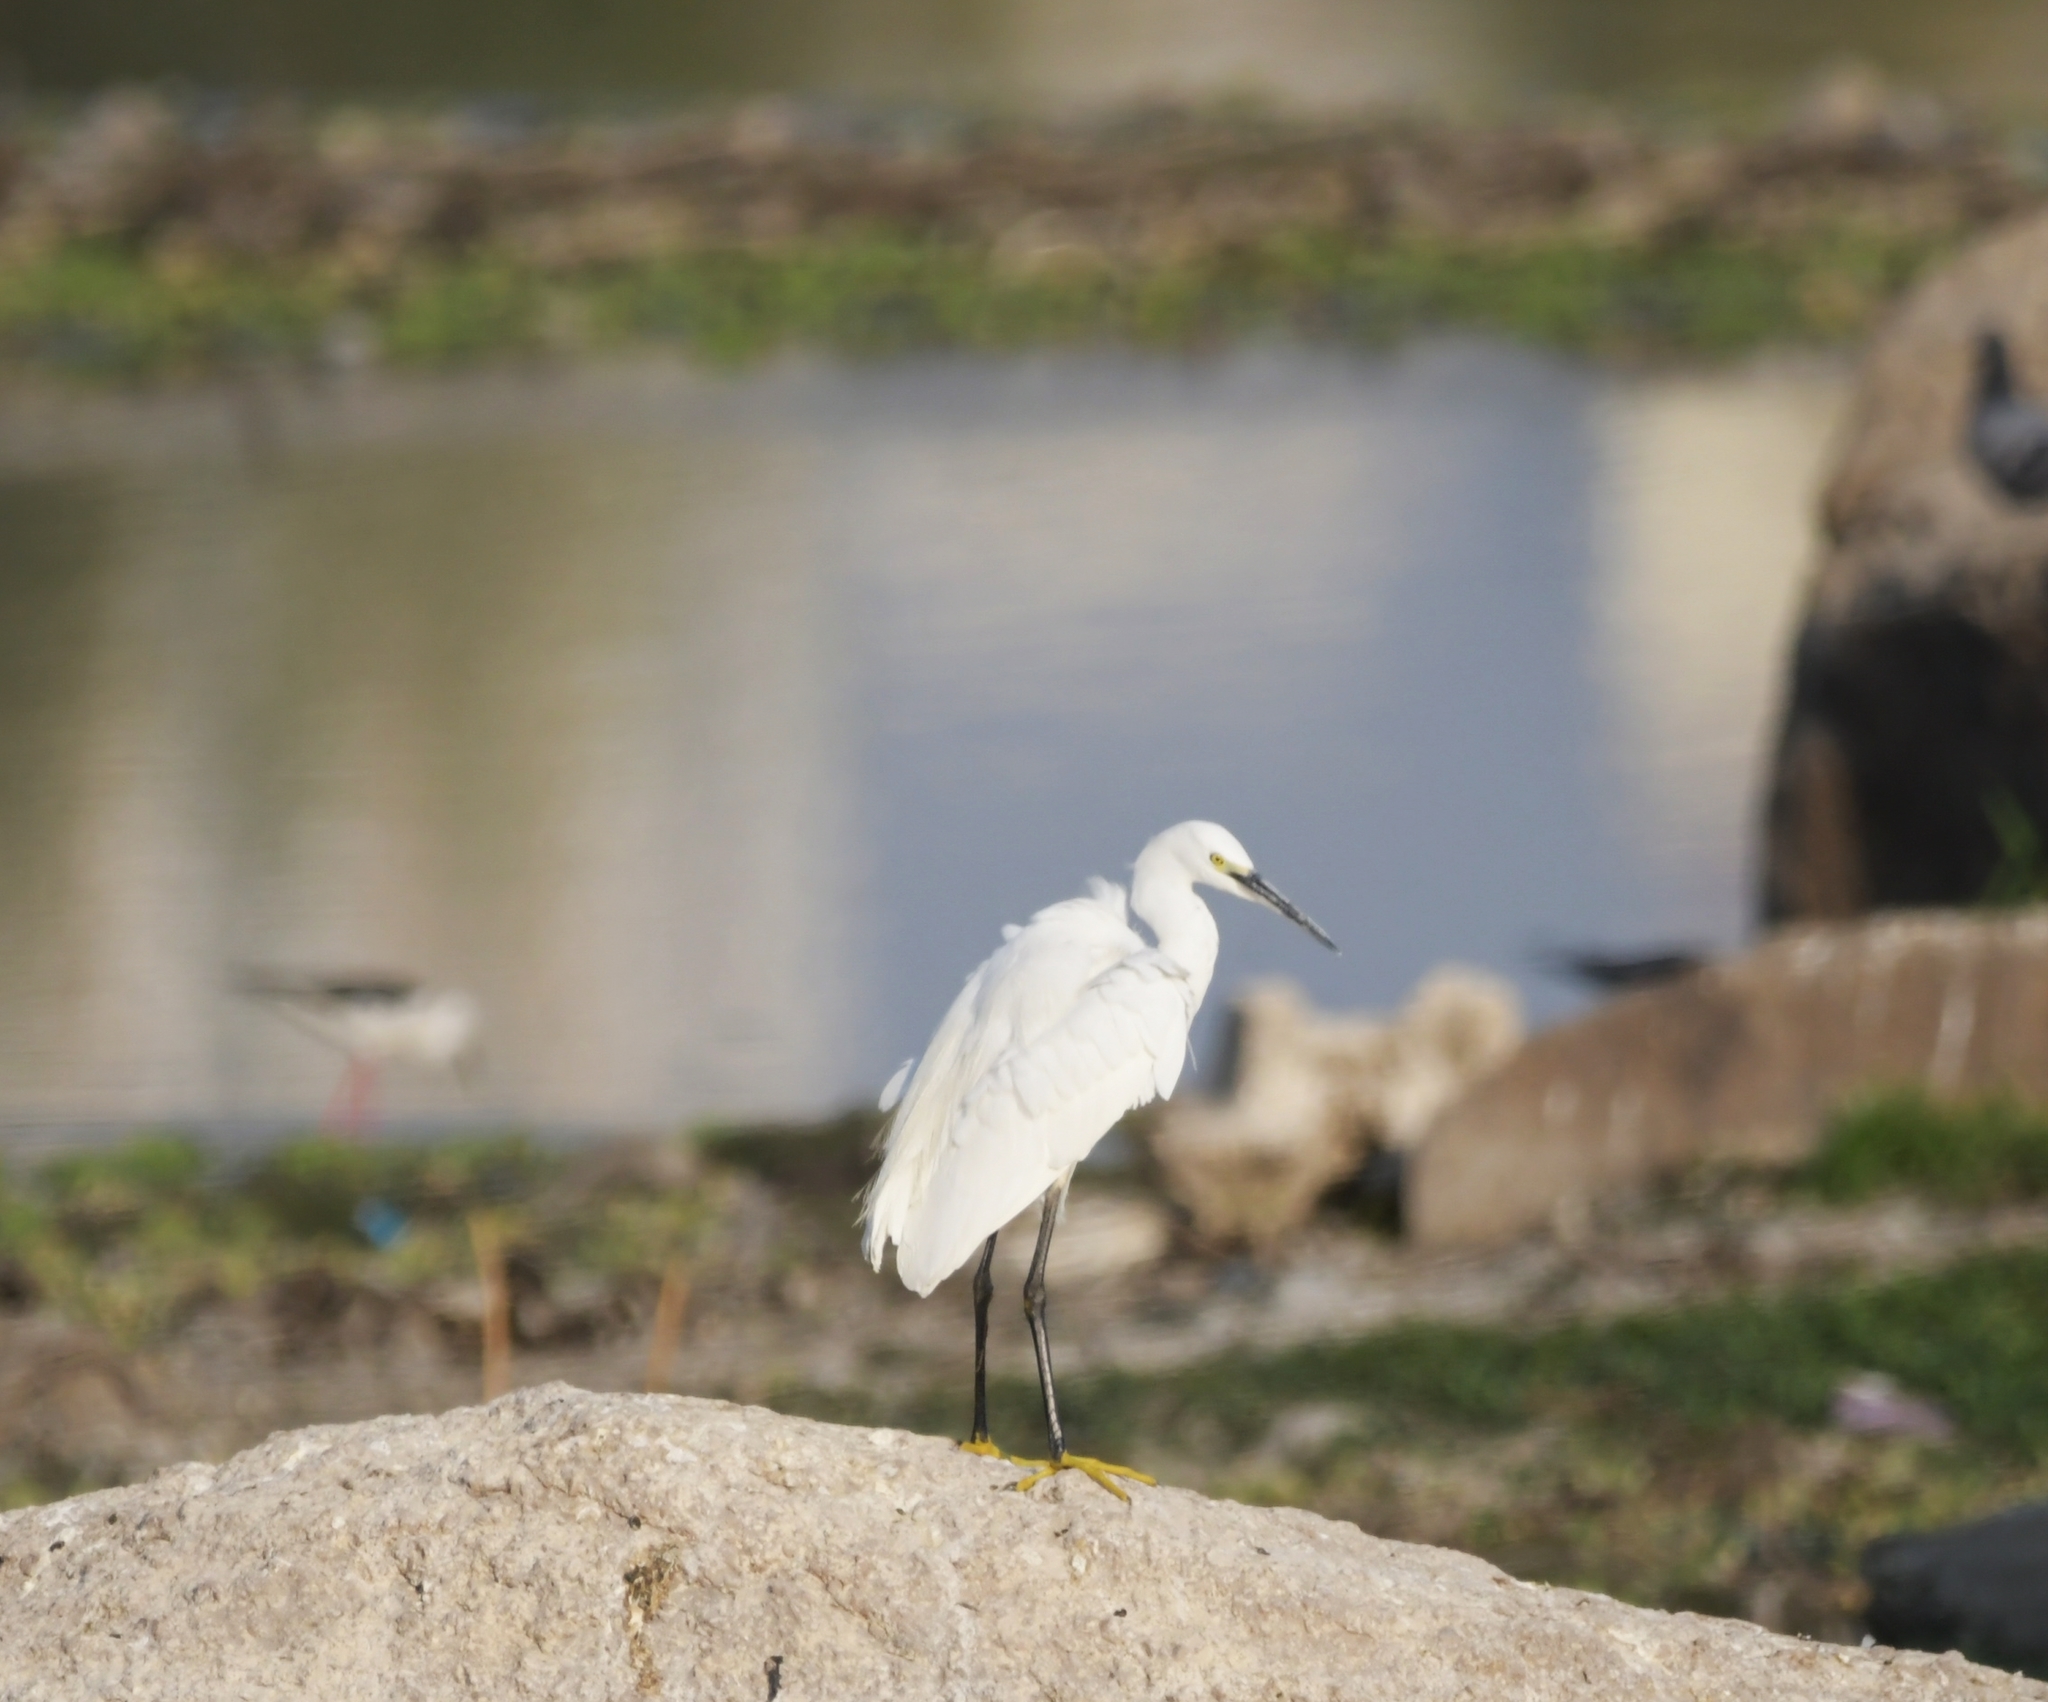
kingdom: Animalia
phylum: Chordata
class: Aves
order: Pelecaniformes
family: Ardeidae
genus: Egretta
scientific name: Egretta garzetta
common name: Little egret
